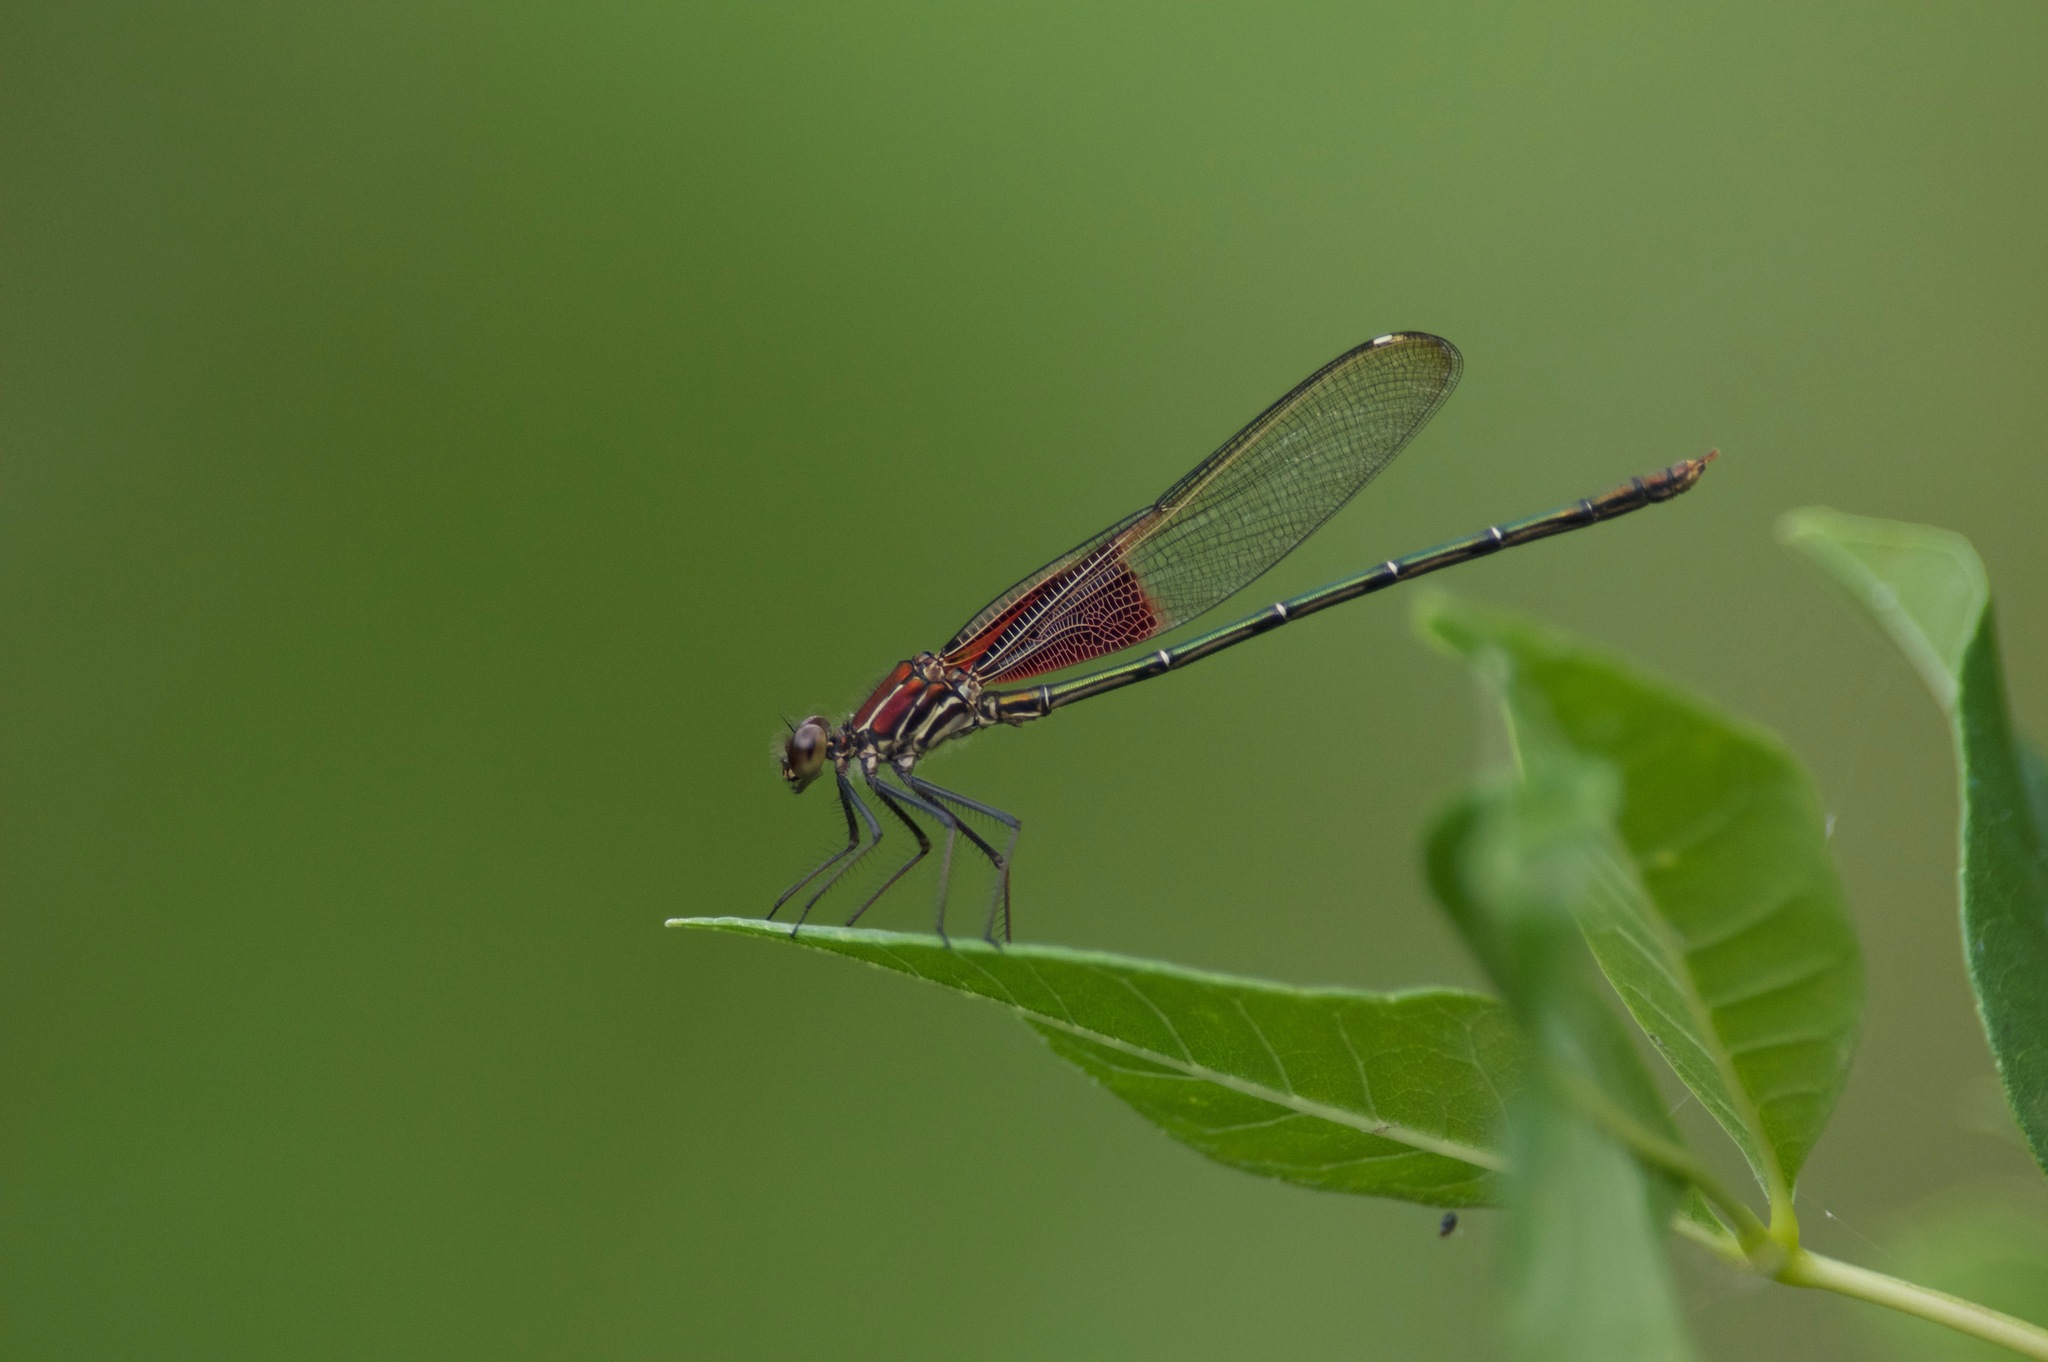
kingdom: Animalia
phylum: Arthropoda
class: Insecta
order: Odonata
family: Calopterygidae
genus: Hetaerina
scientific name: Hetaerina americana
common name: American rubyspot
